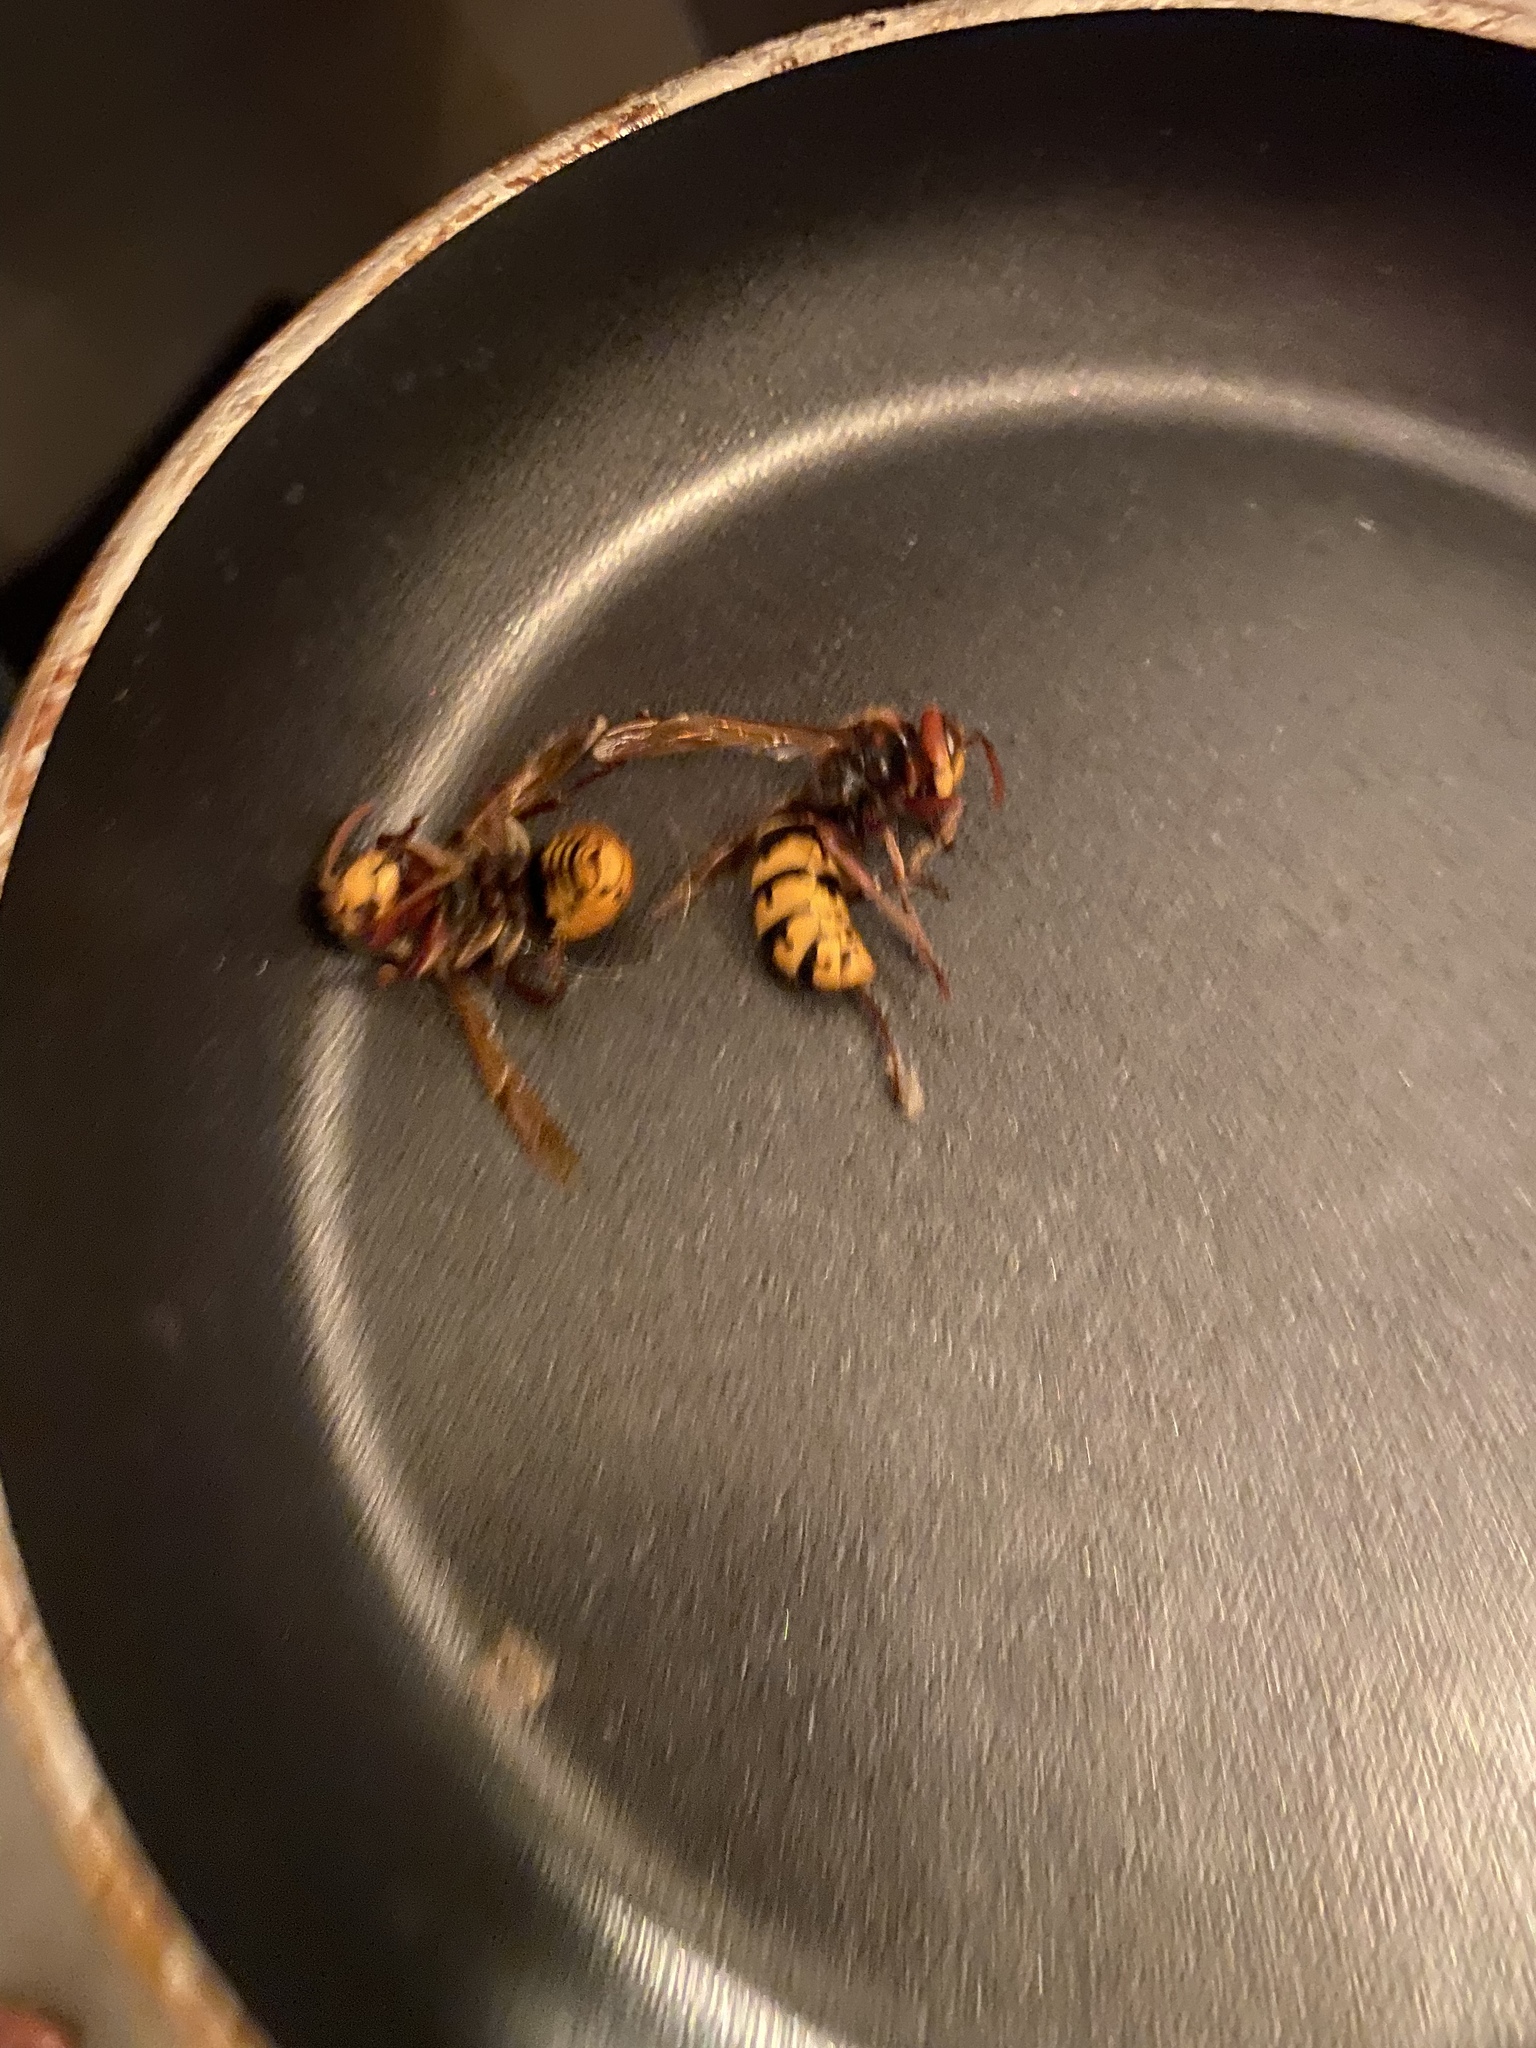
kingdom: Animalia
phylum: Arthropoda
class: Insecta
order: Hymenoptera
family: Vespidae
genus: Vespa
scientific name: Vespa crabro
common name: Hornet
